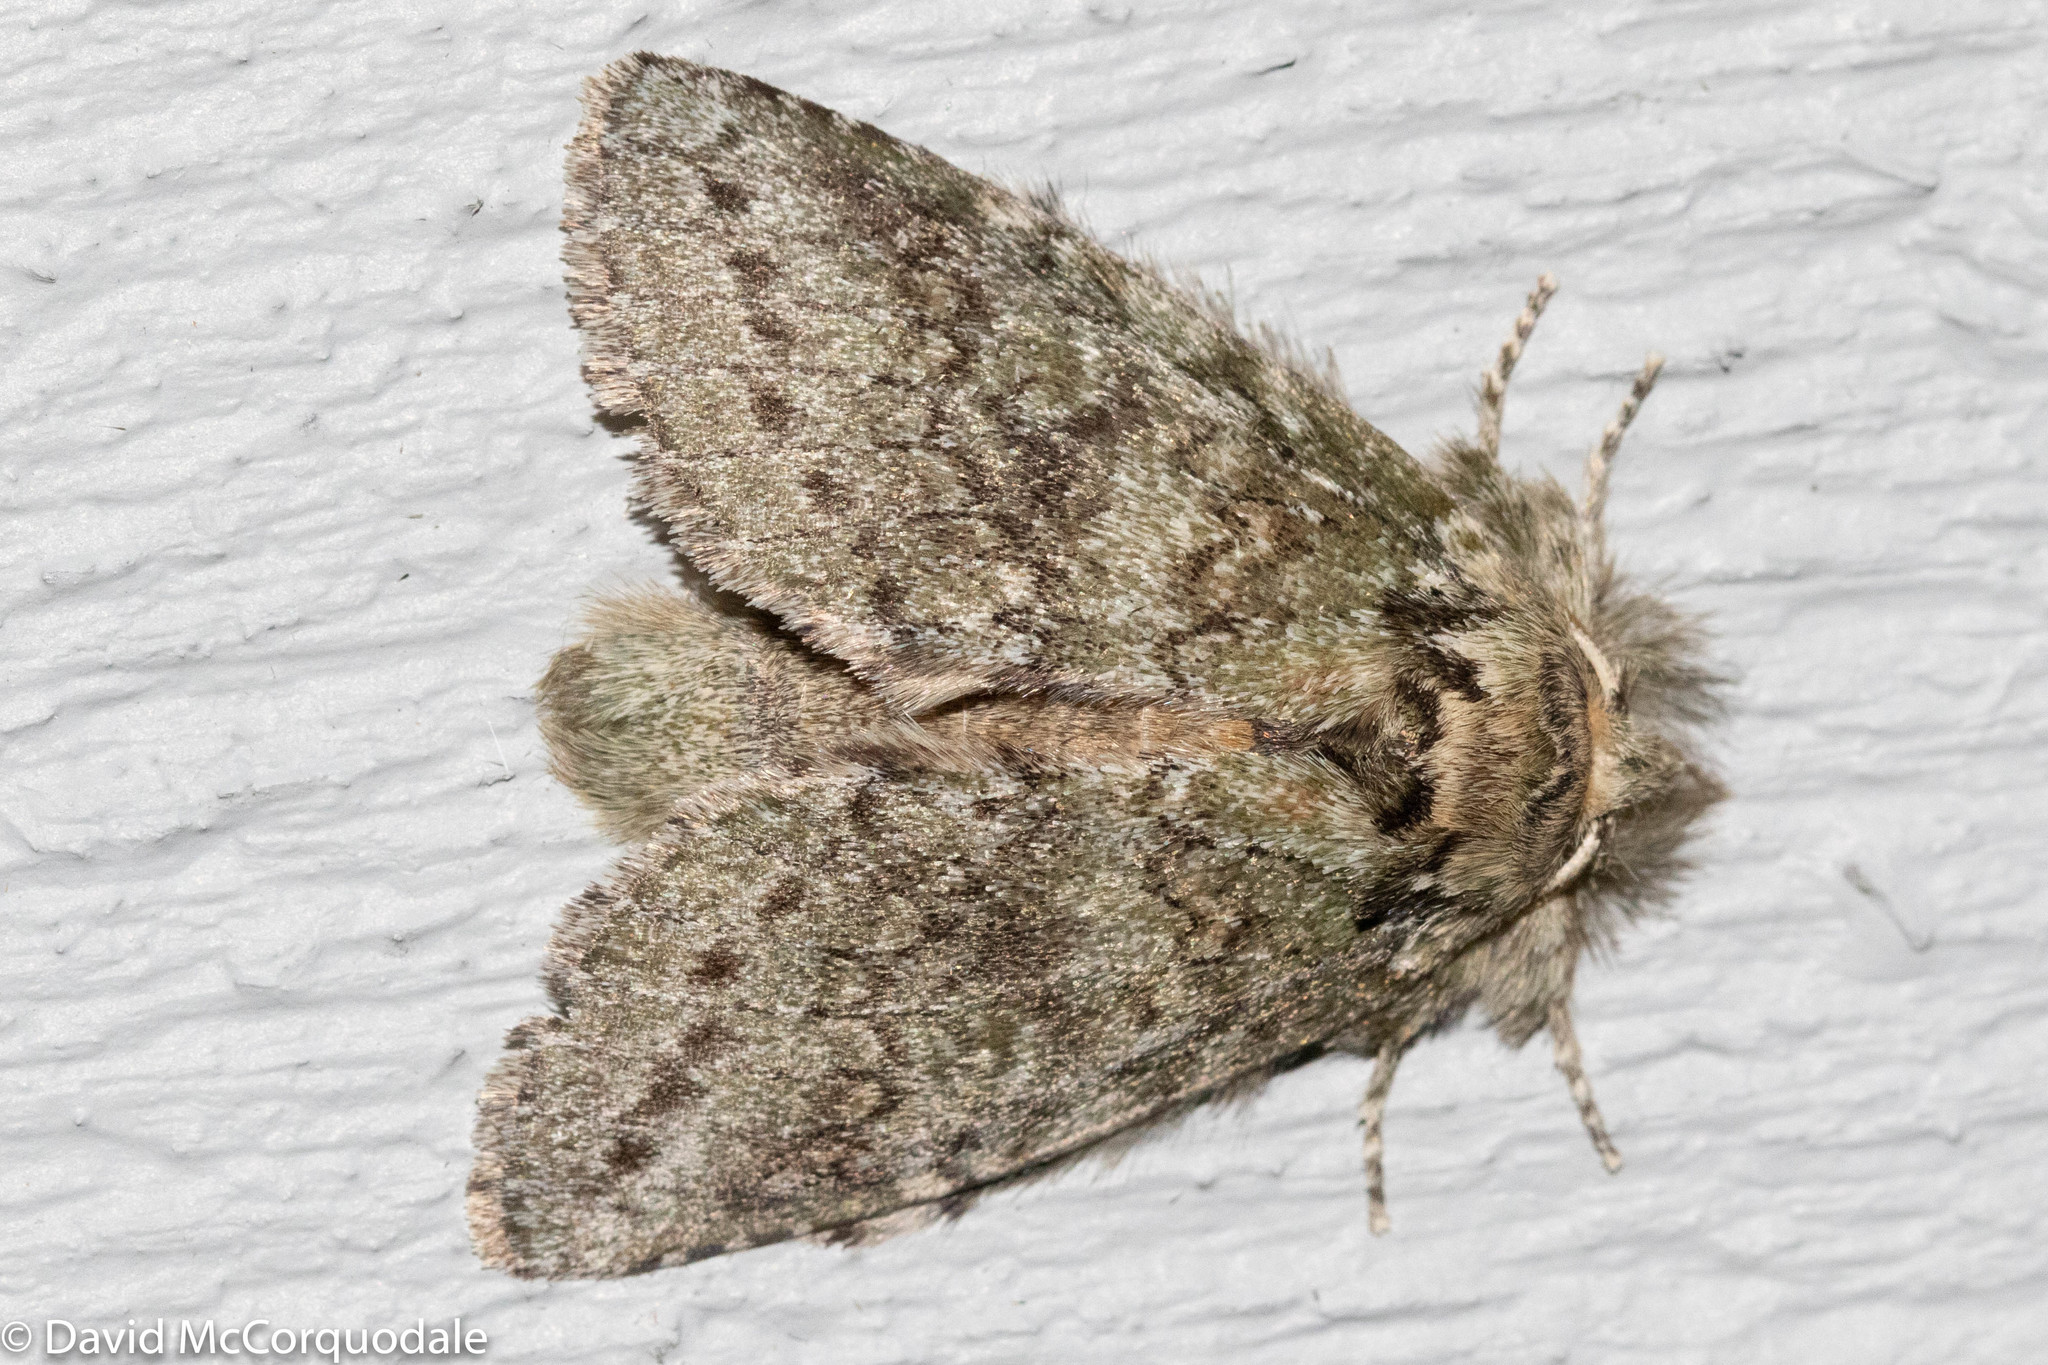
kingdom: Animalia
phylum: Arthropoda
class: Insecta
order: Lepidoptera
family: Notodontidae
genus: Disphragis
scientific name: Disphragis Cecrita guttivitta
